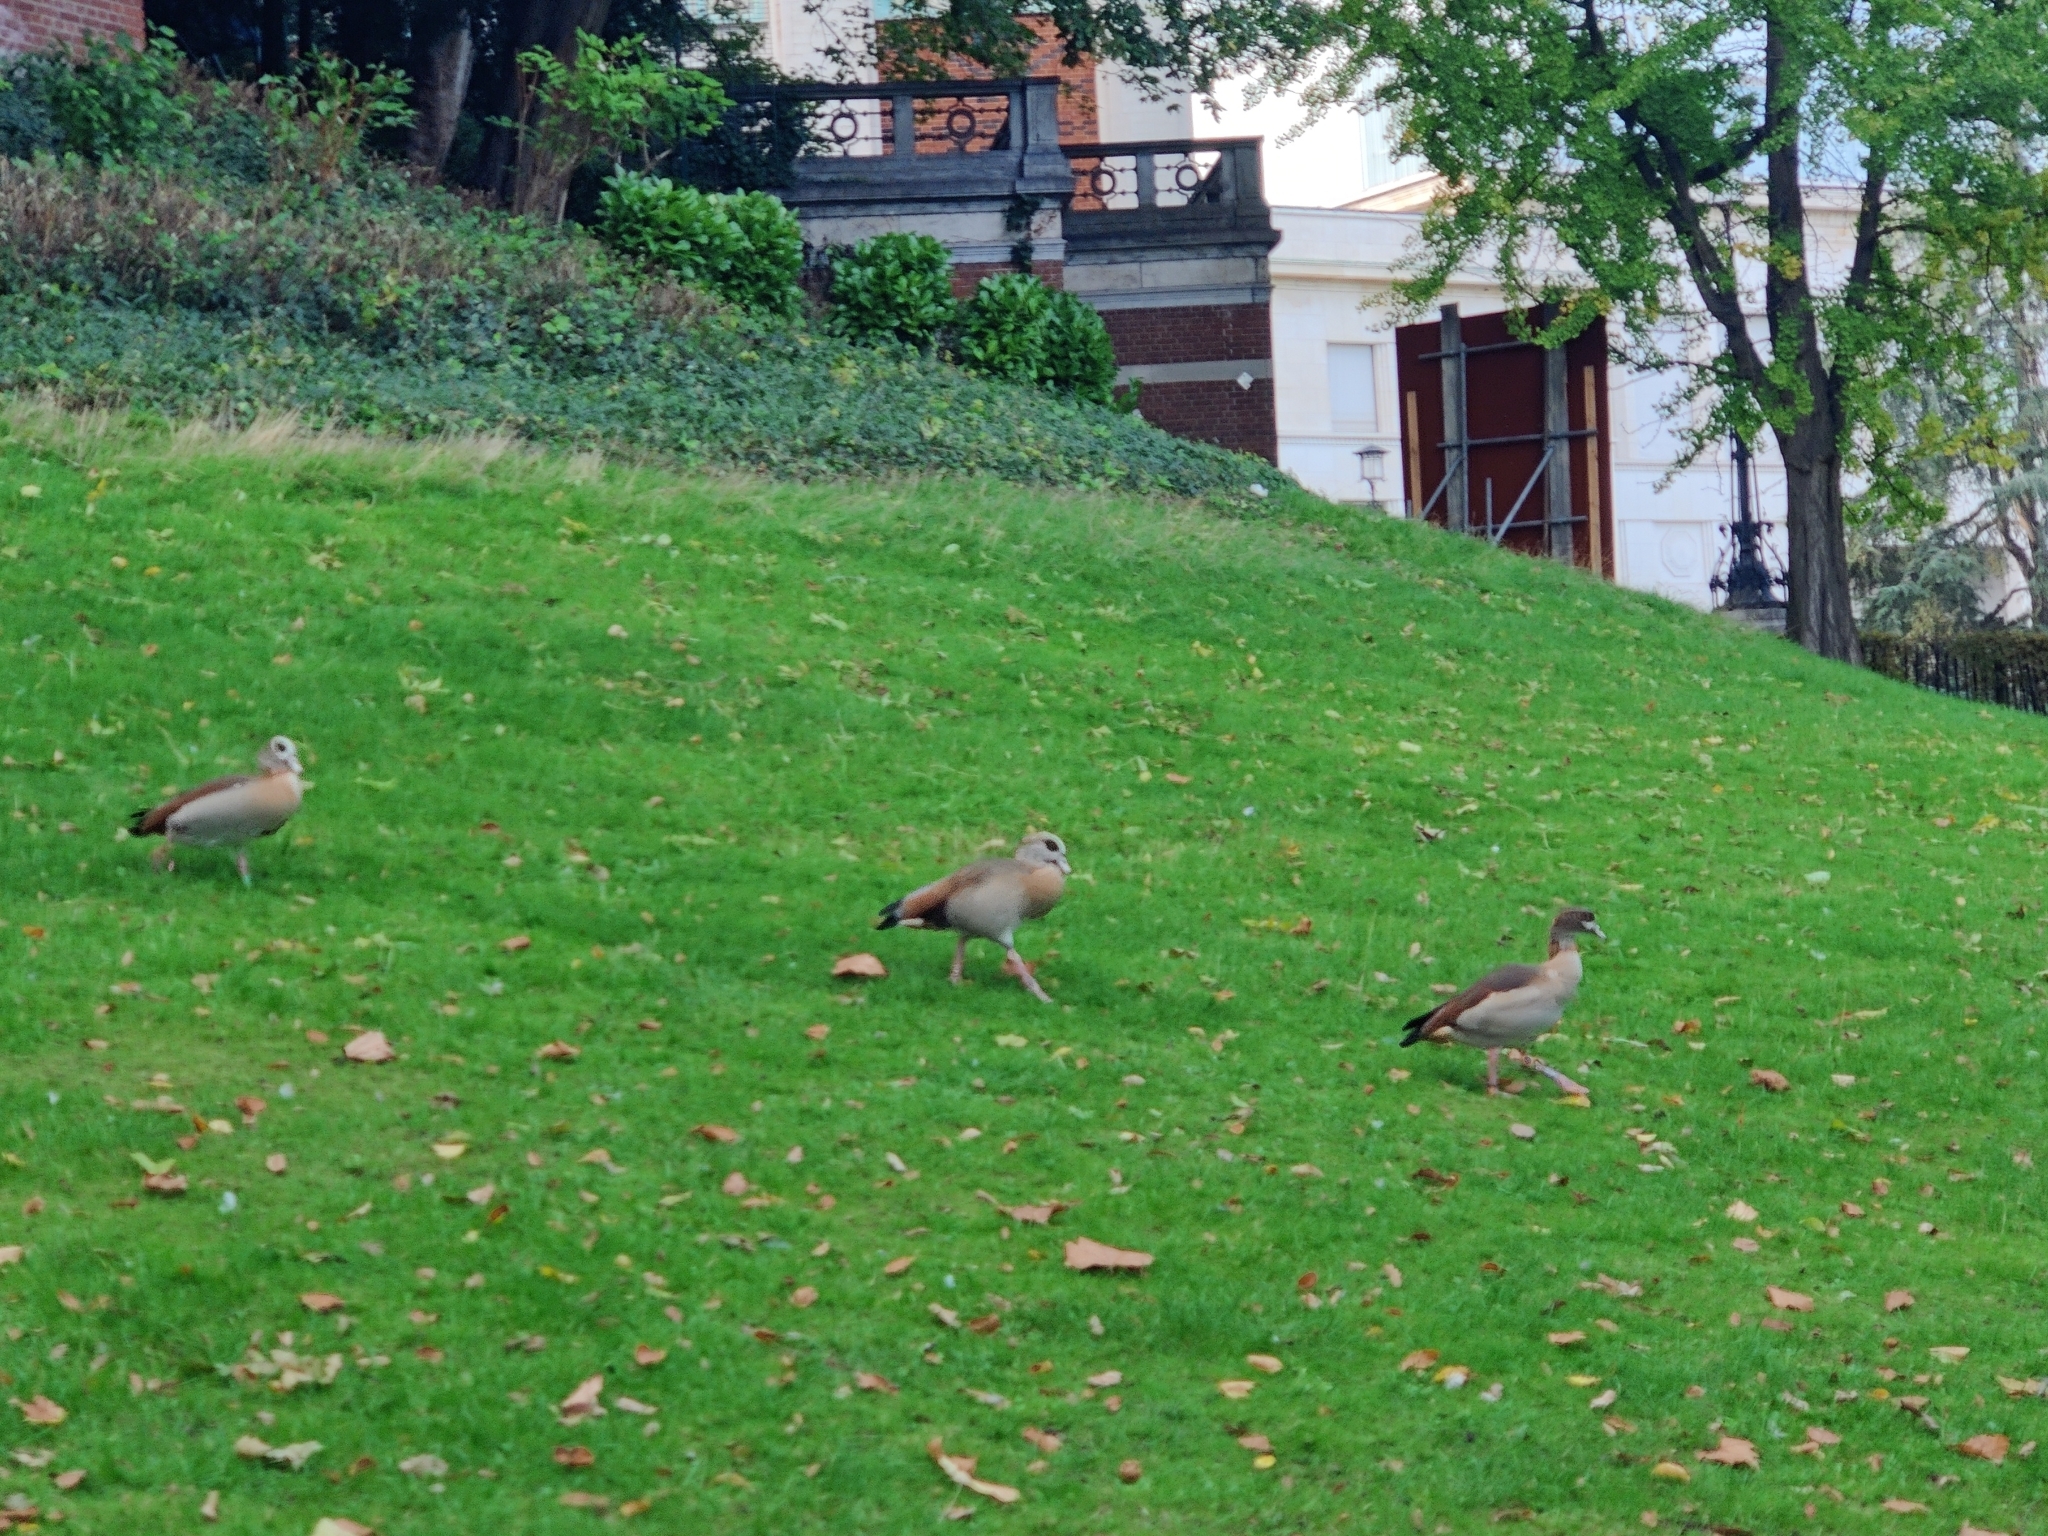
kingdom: Animalia
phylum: Chordata
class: Aves
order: Anseriformes
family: Anatidae
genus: Alopochen
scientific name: Alopochen aegyptiaca
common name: Egyptian goose
